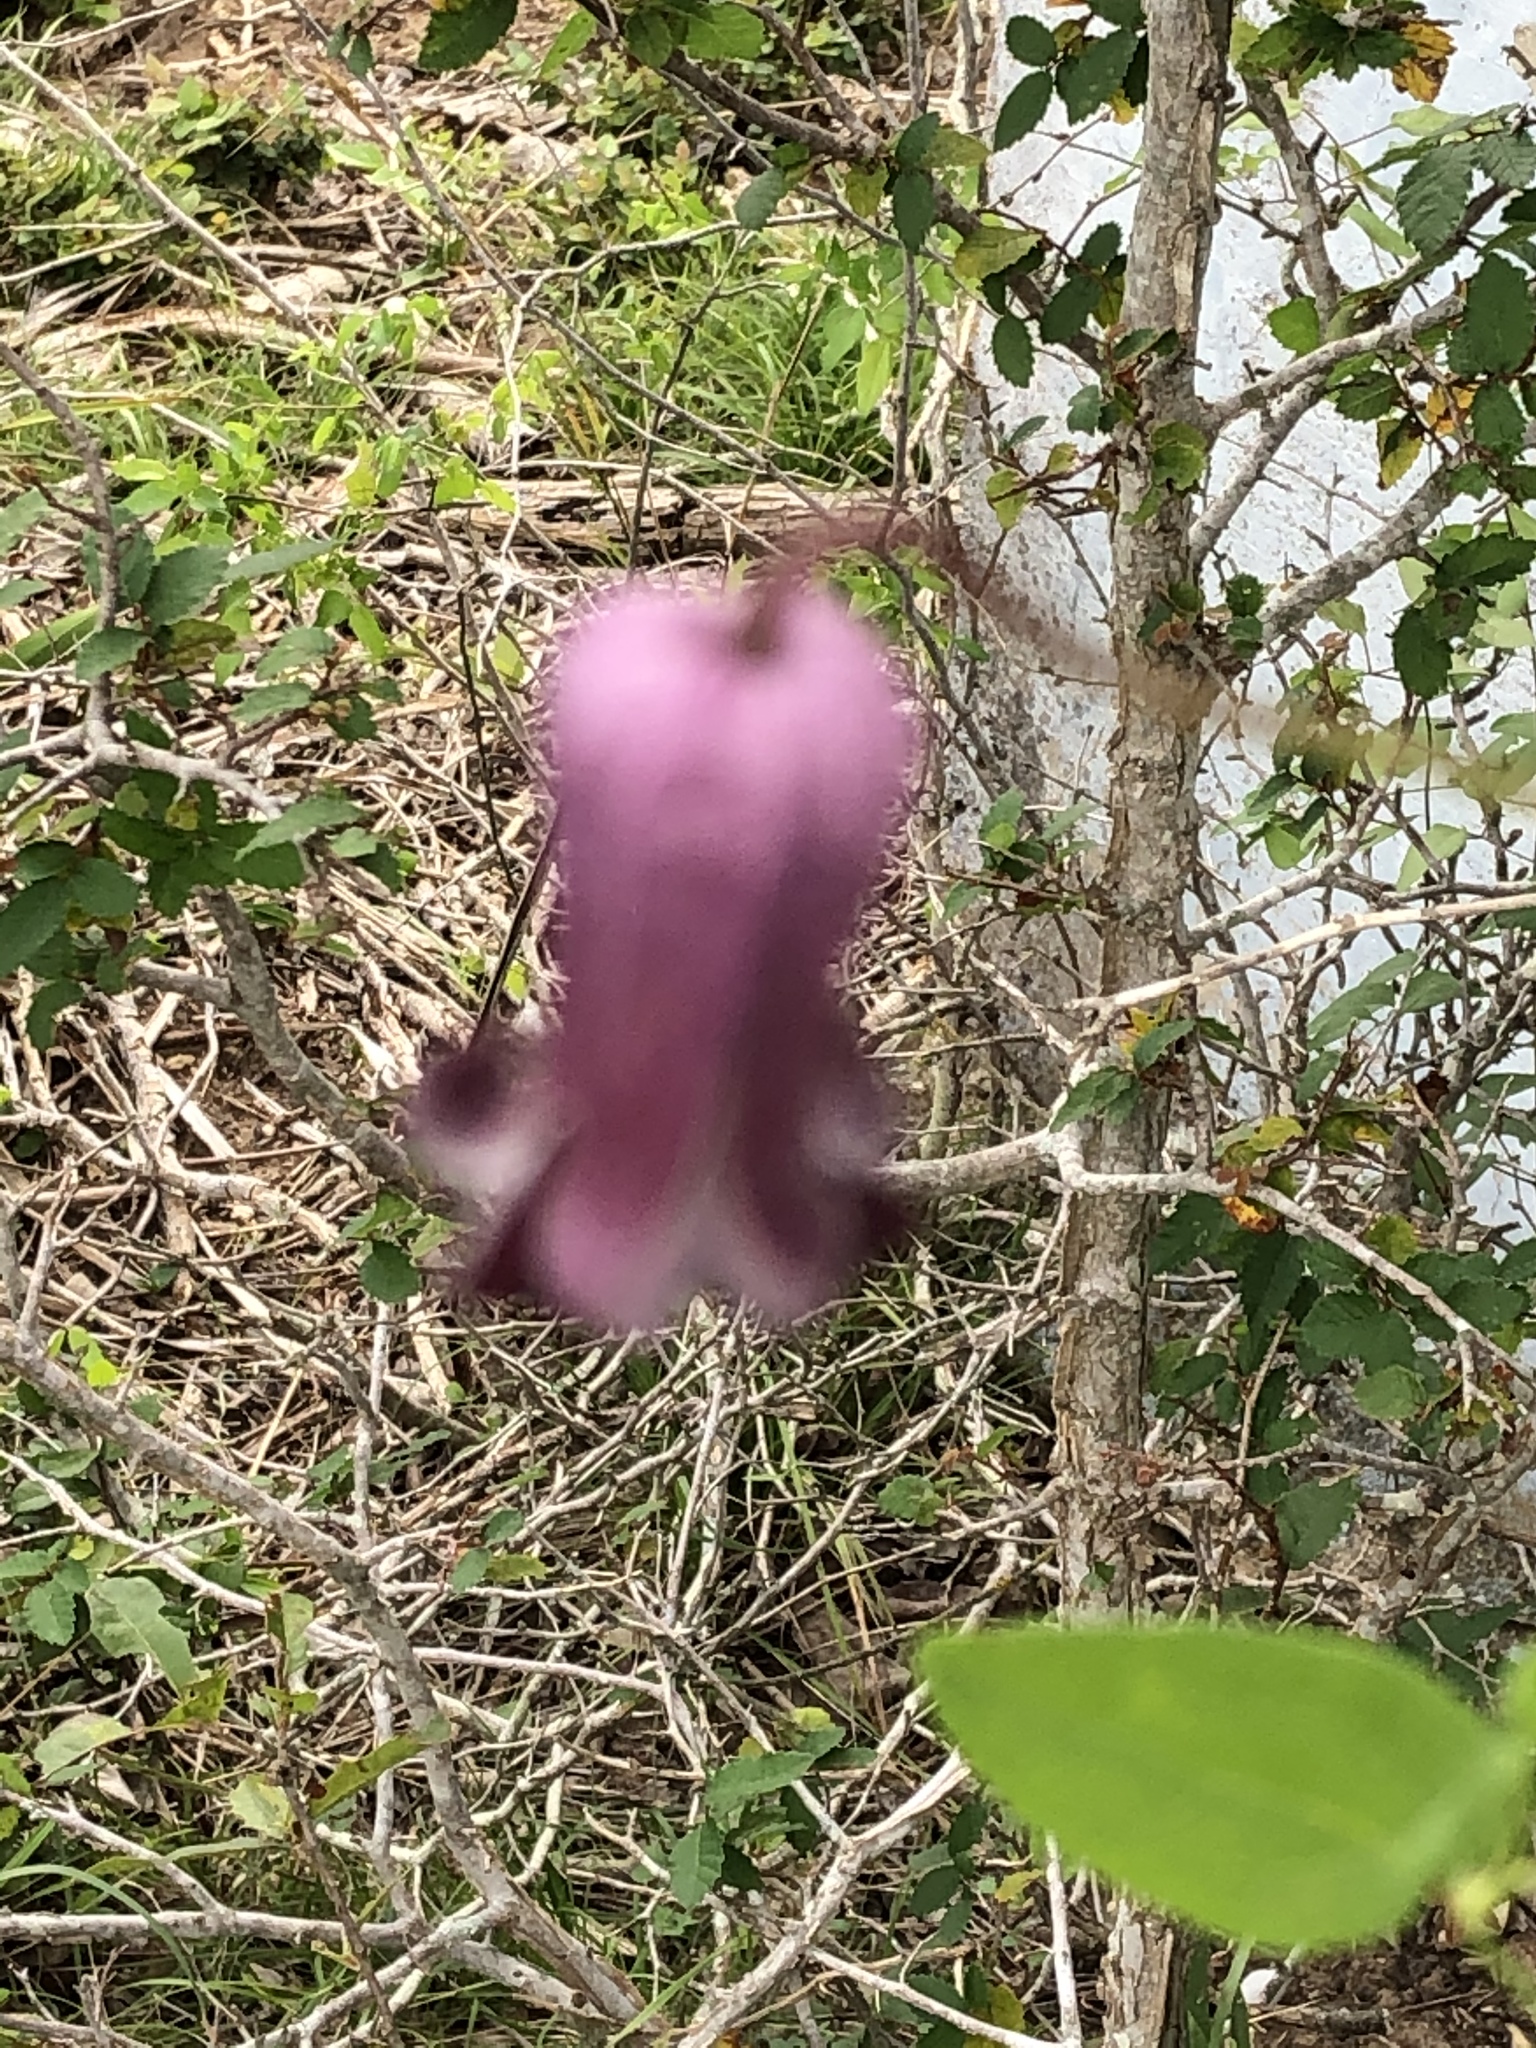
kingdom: Plantae
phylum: Tracheophyta
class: Magnoliopsida
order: Ranunculales
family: Ranunculaceae
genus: Clematis
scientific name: Clematis pitcheri
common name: Bellflower clematis
